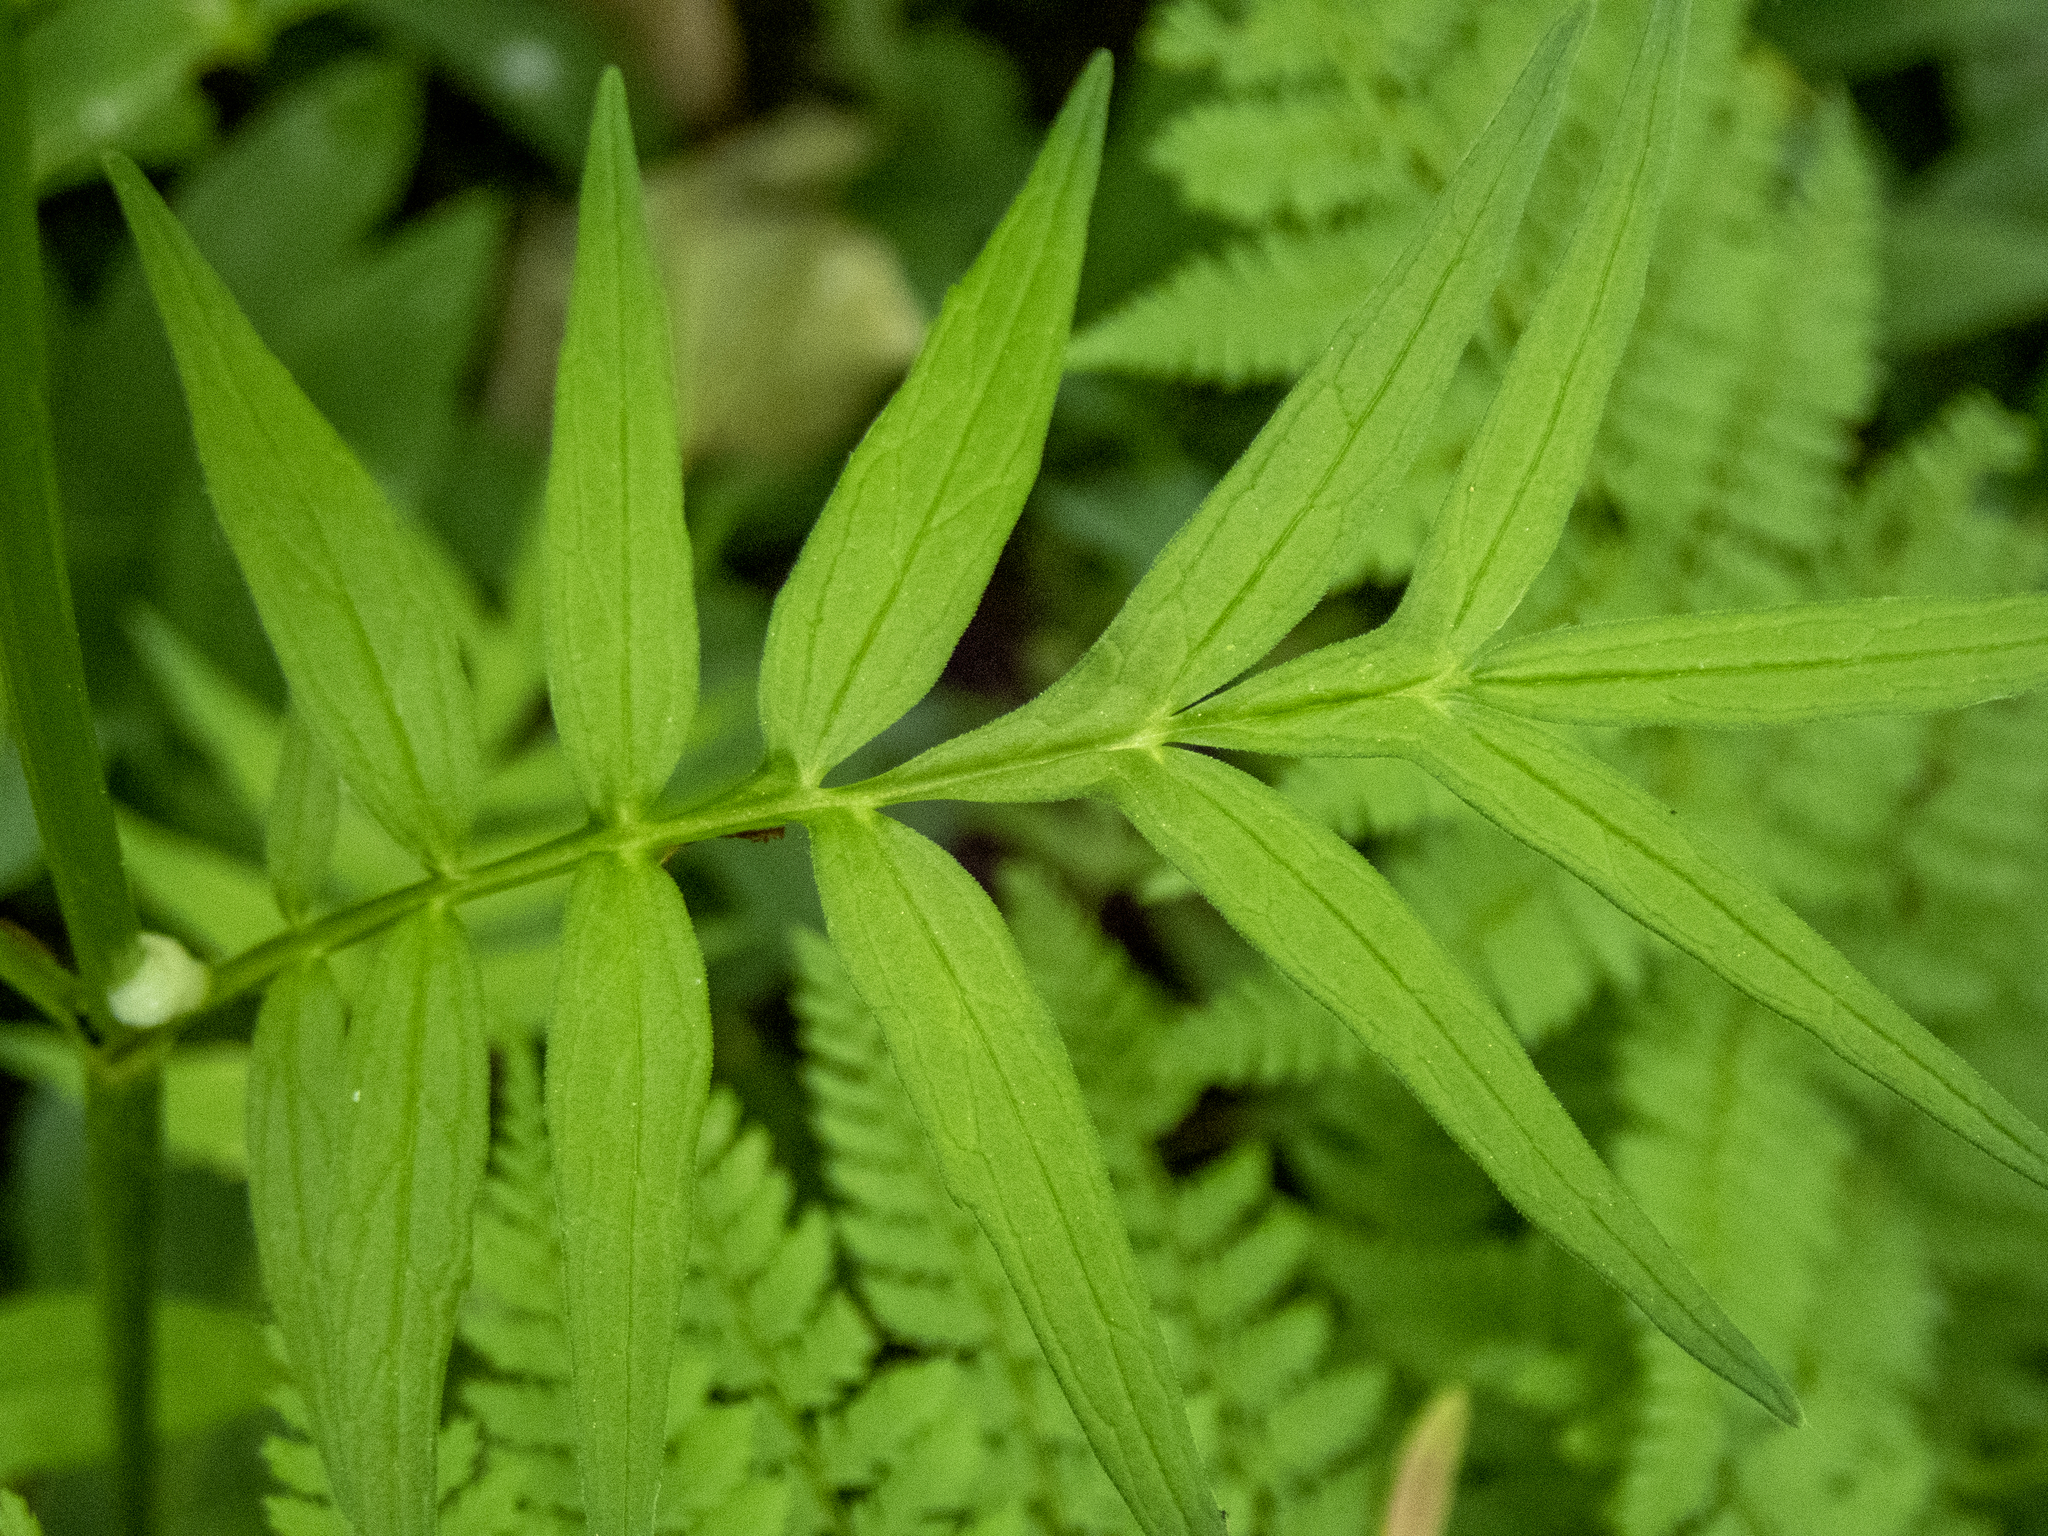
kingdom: Plantae
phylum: Tracheophyta
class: Magnoliopsida
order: Dipsacales
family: Caprifoliaceae
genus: Valeriana
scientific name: Valeriana officinalis
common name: Common valerian
